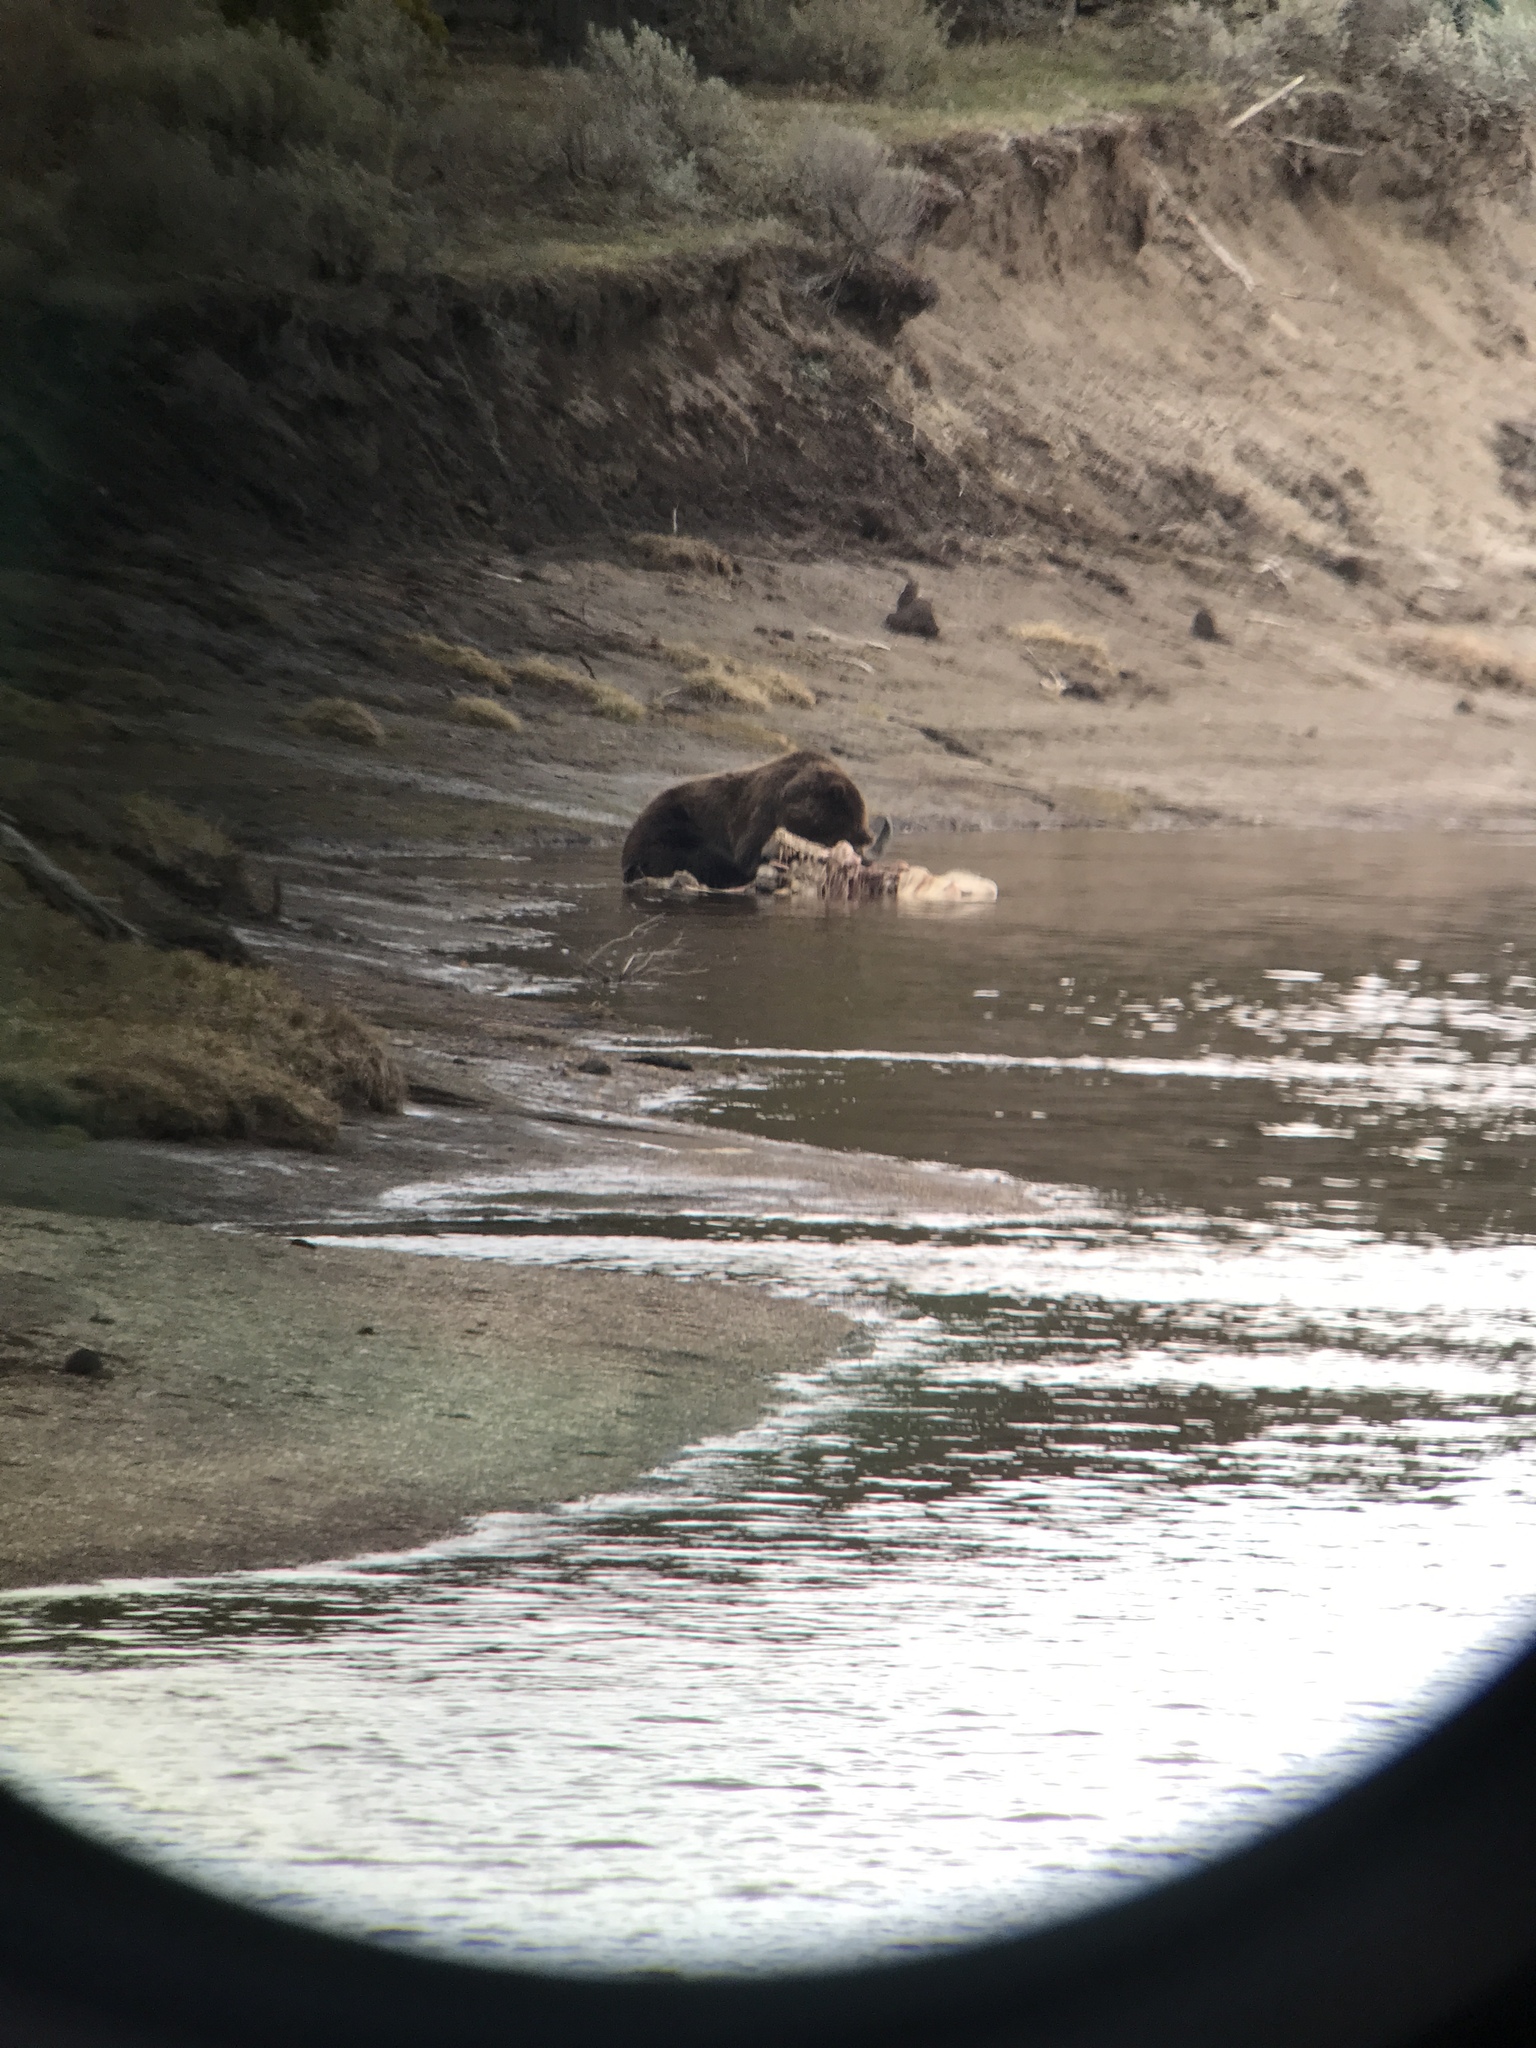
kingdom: Animalia
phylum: Chordata
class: Mammalia
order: Carnivora
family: Ursidae
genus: Ursus
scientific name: Ursus arctos
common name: Brown bear
